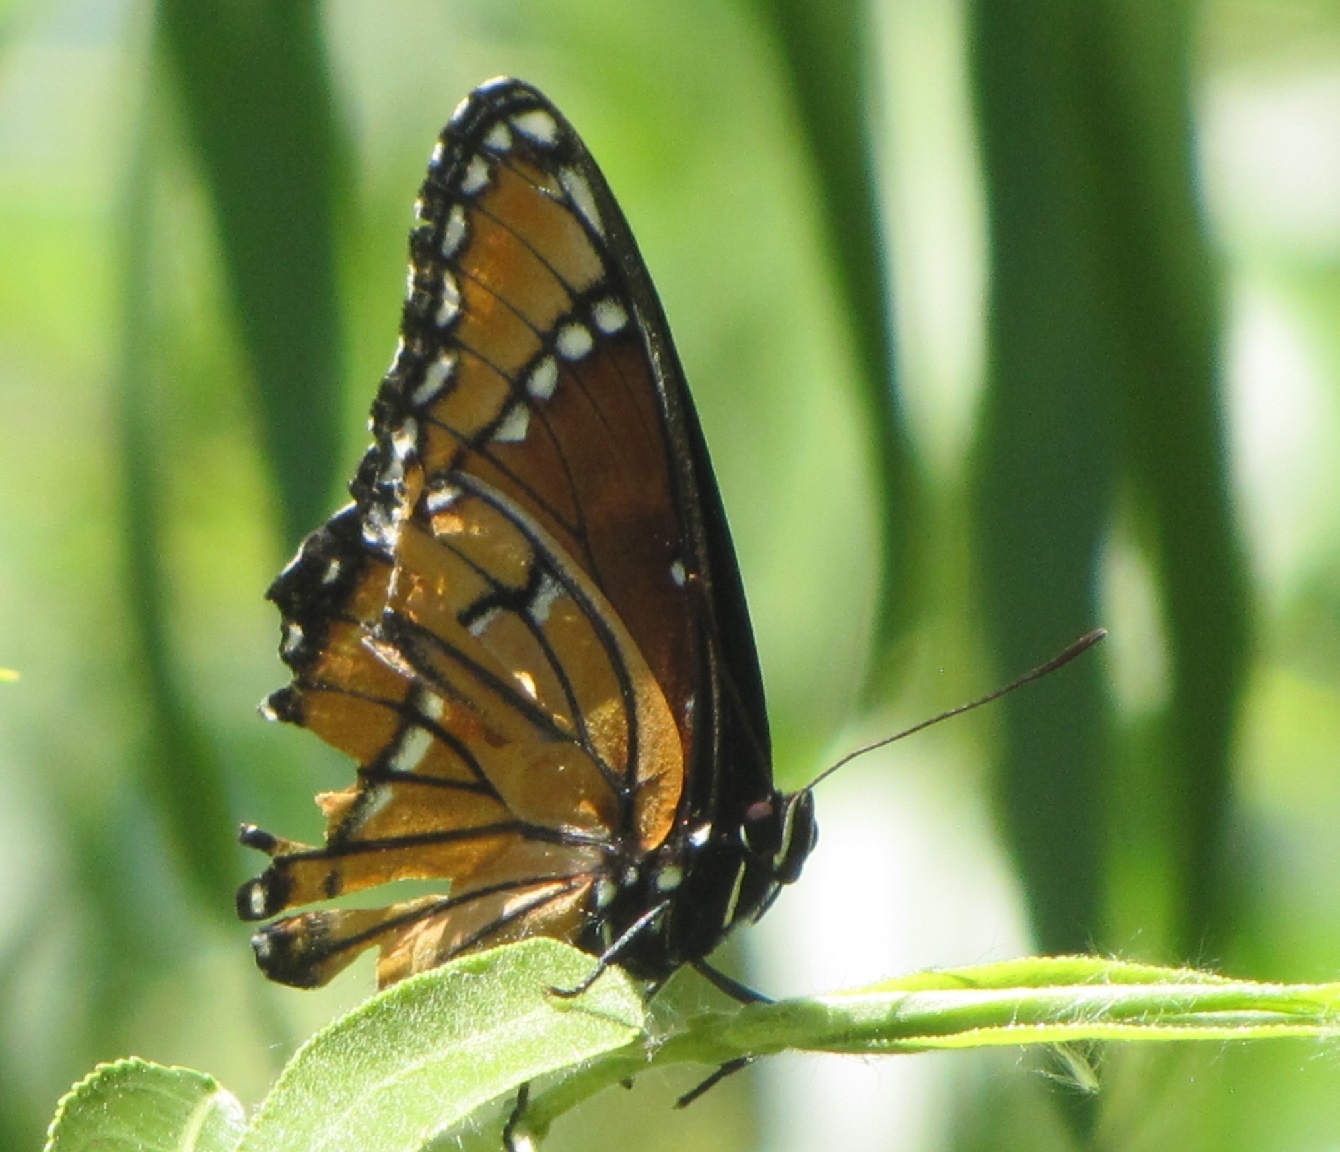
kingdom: Animalia
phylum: Arthropoda
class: Insecta
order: Lepidoptera
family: Nymphalidae
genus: Limenitis
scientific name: Limenitis archippus
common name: Viceroy
